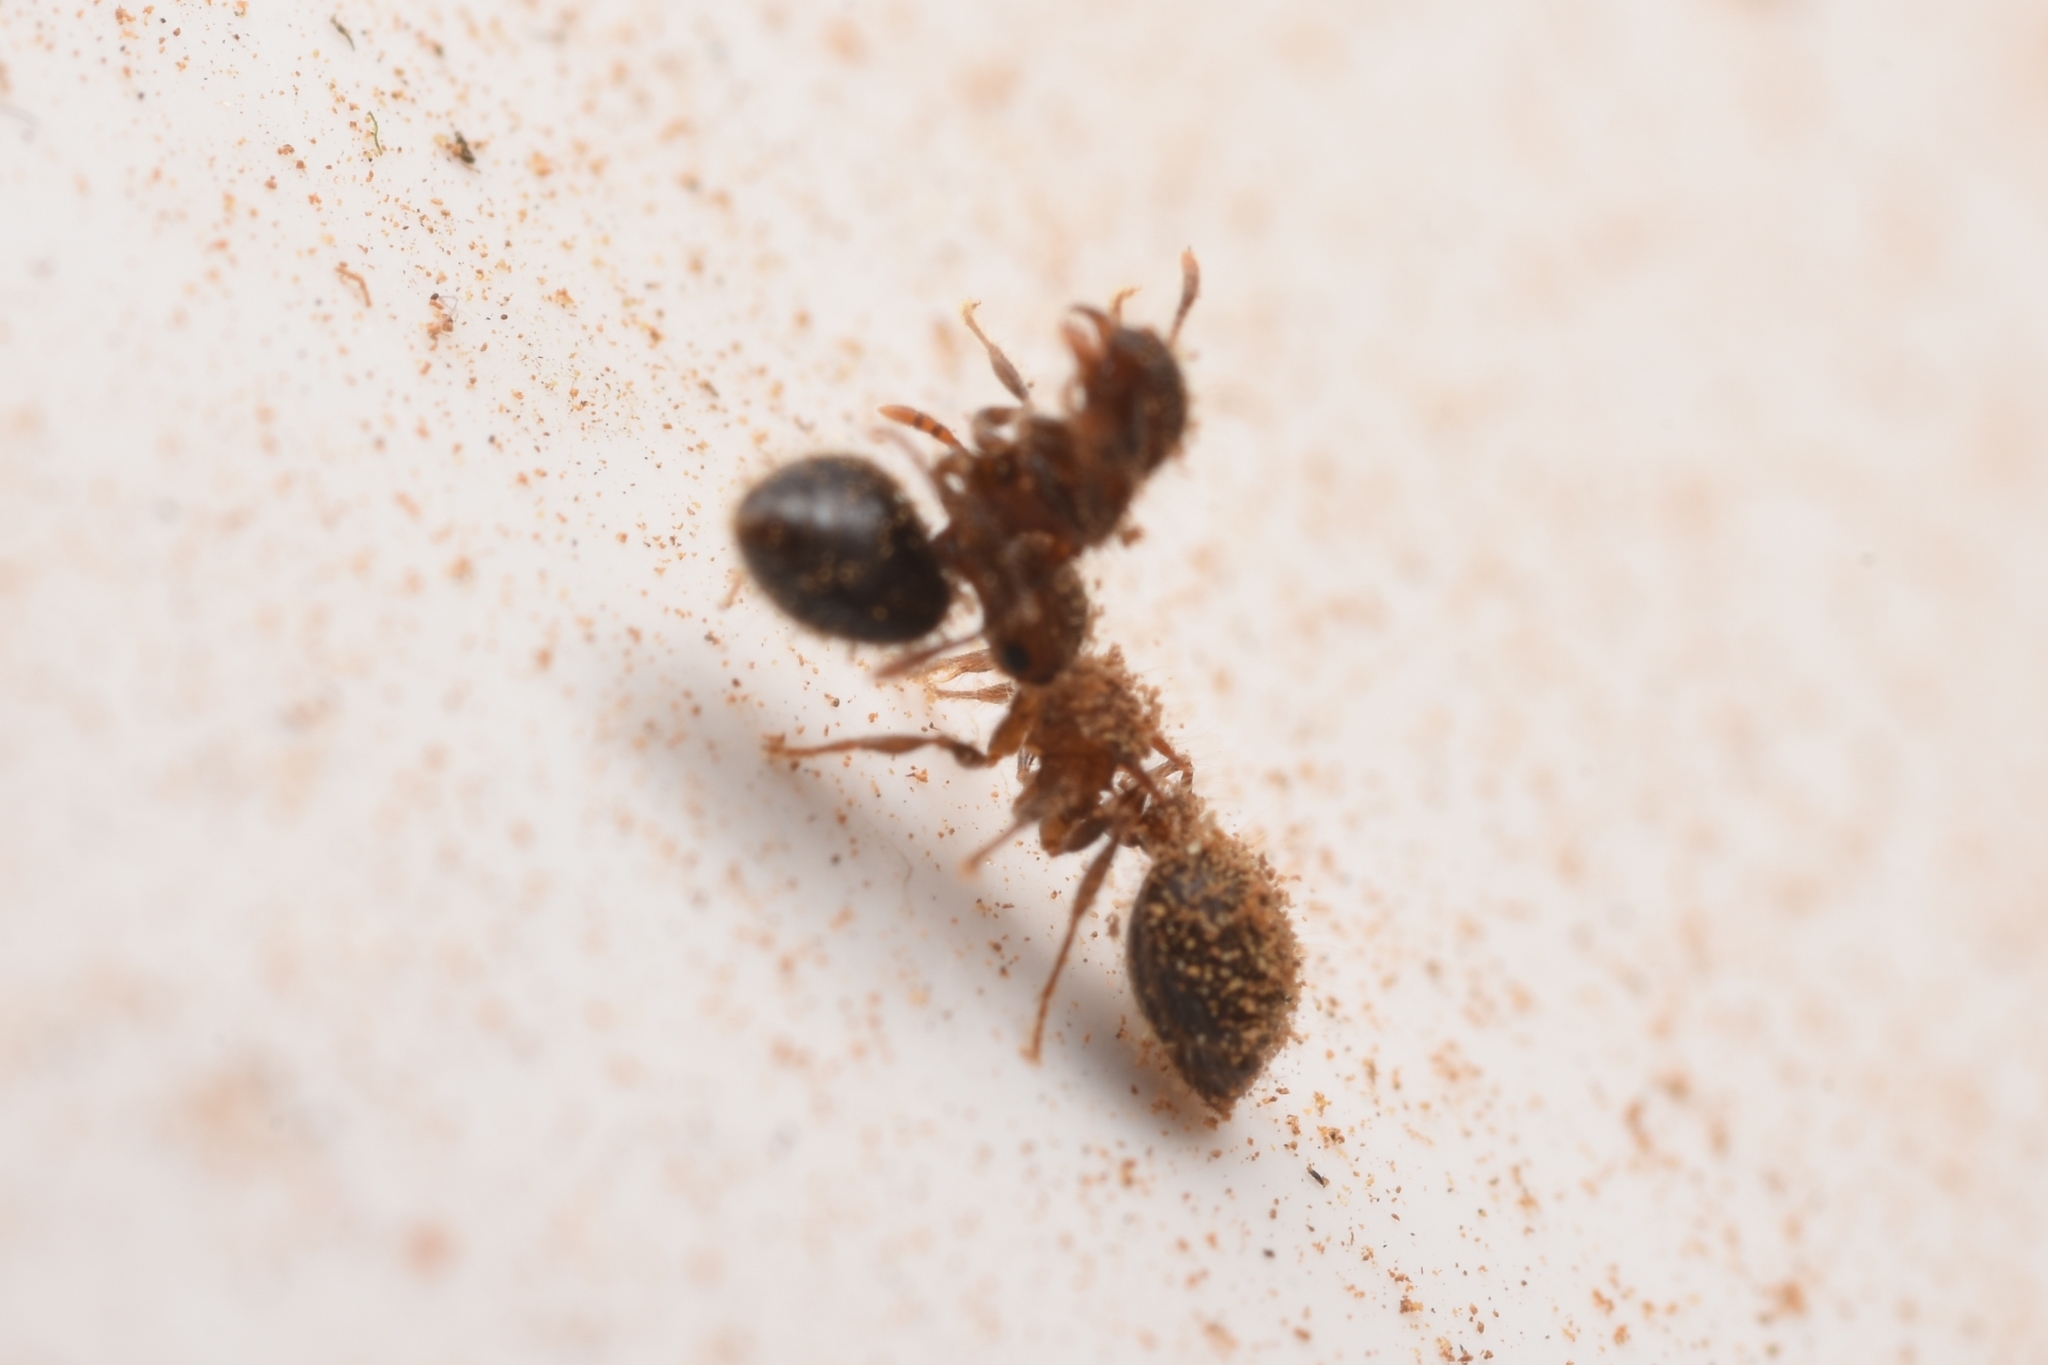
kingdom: Animalia
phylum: Arthropoda
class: Insecta
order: Hymenoptera
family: Formicidae
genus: Meranoplus
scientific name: Meranoplus bicolor
